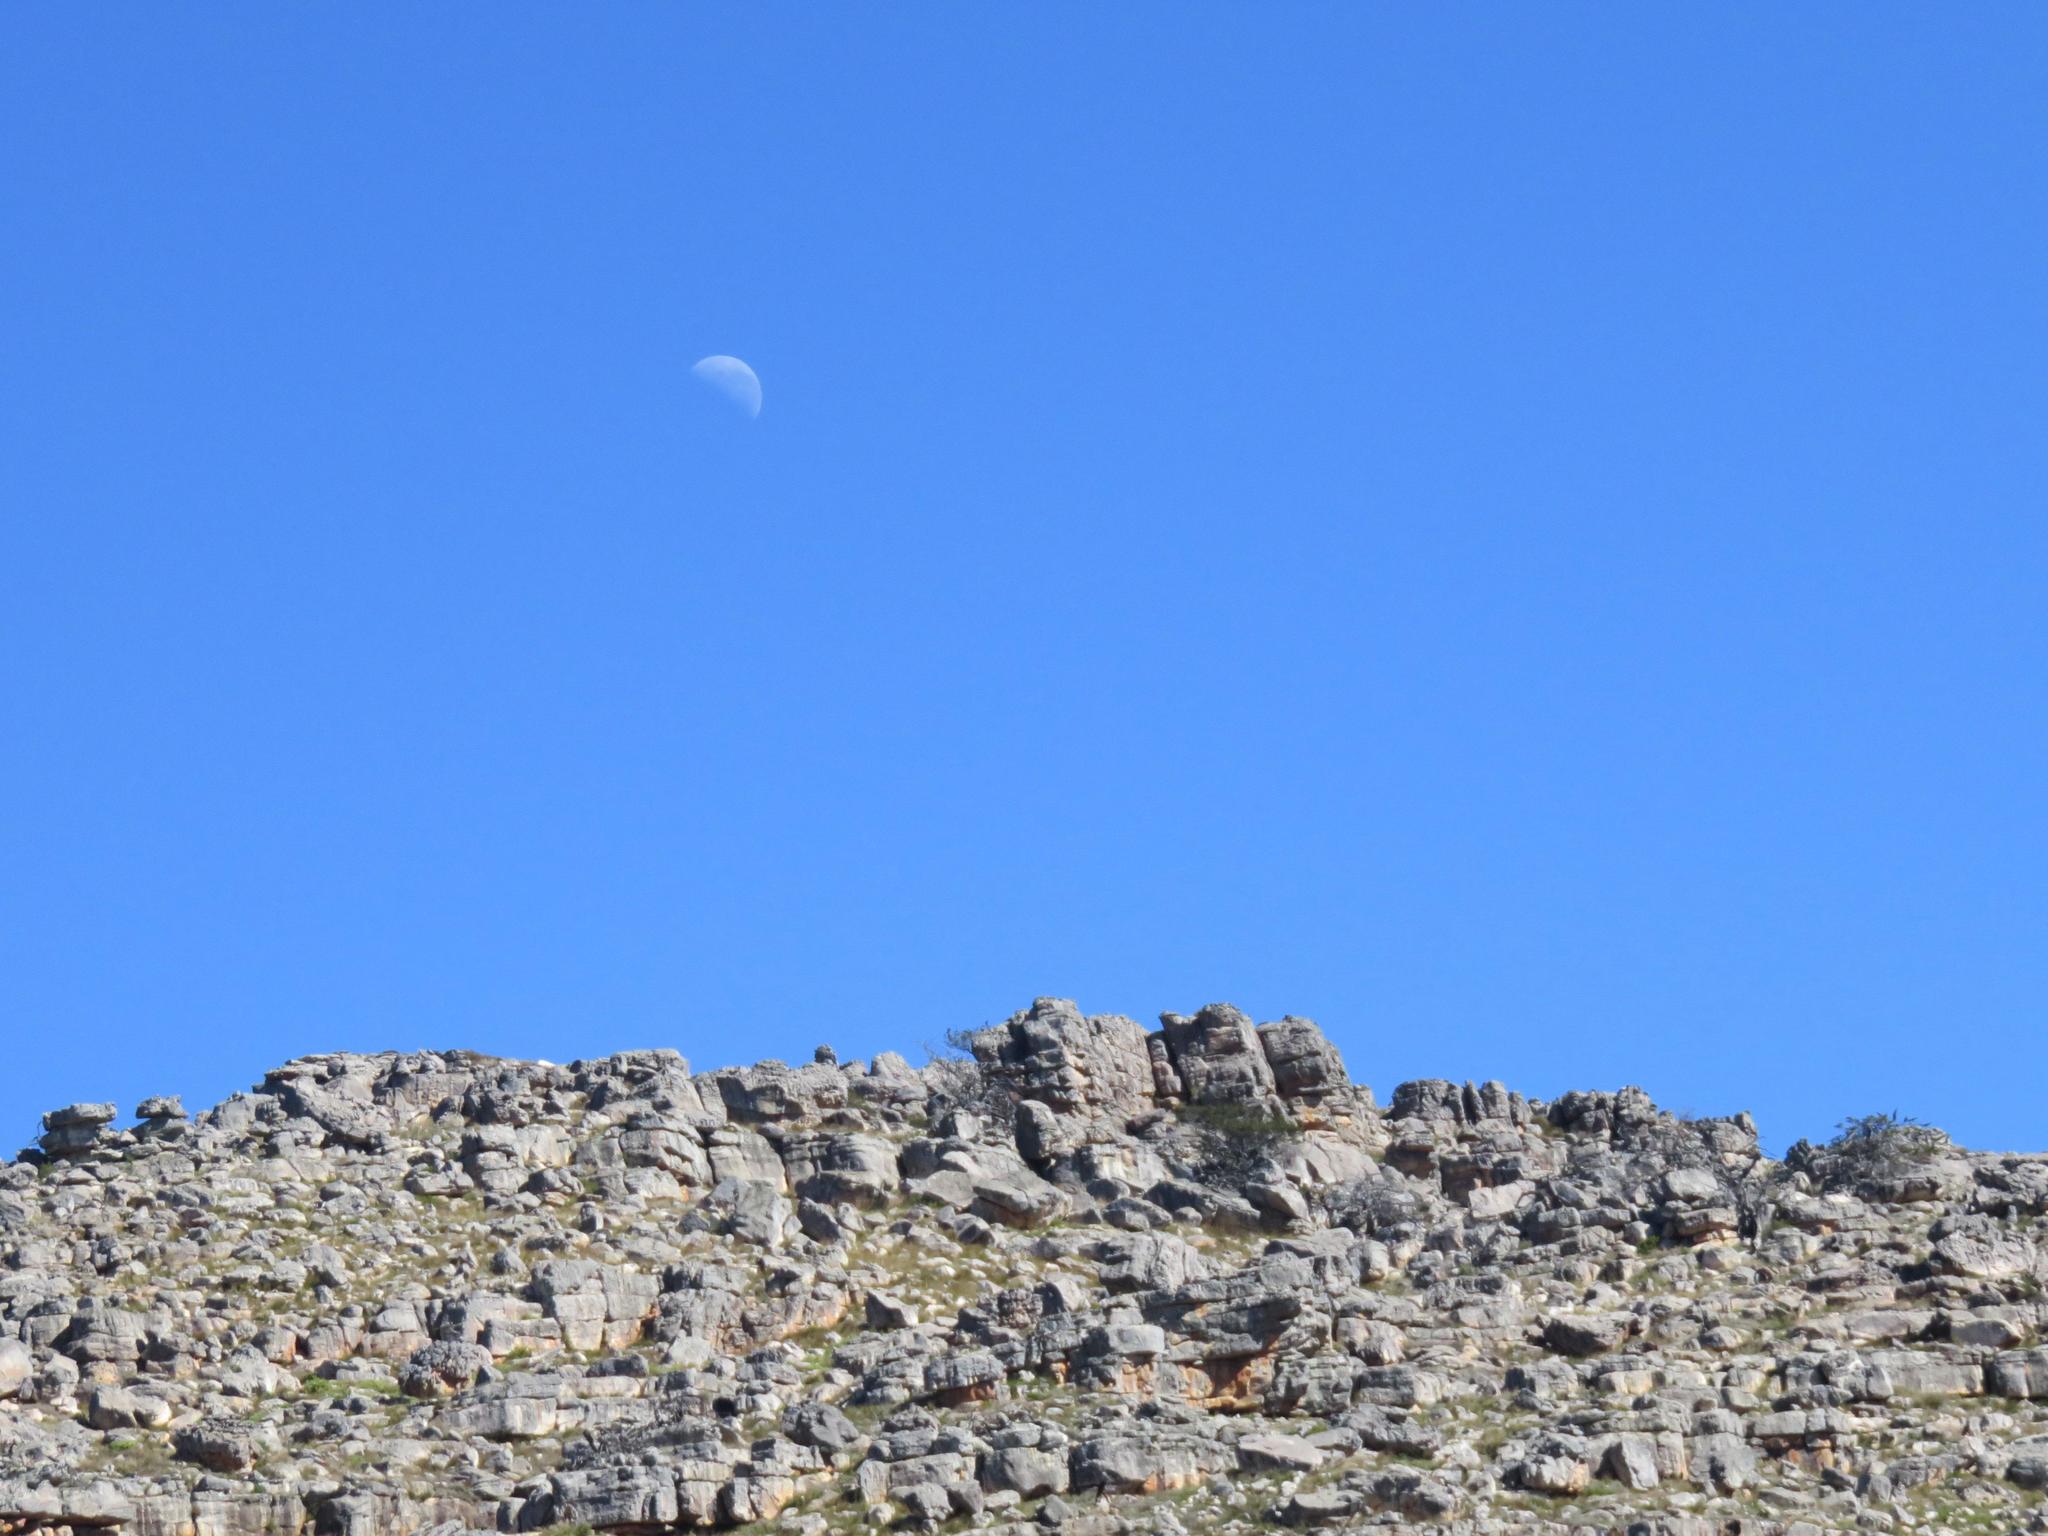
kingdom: Plantae
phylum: Tracheophyta
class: Pinopsida
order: Pinales
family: Cupressaceae
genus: Widdringtonia
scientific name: Widdringtonia nodiflora
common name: Cape cypress
